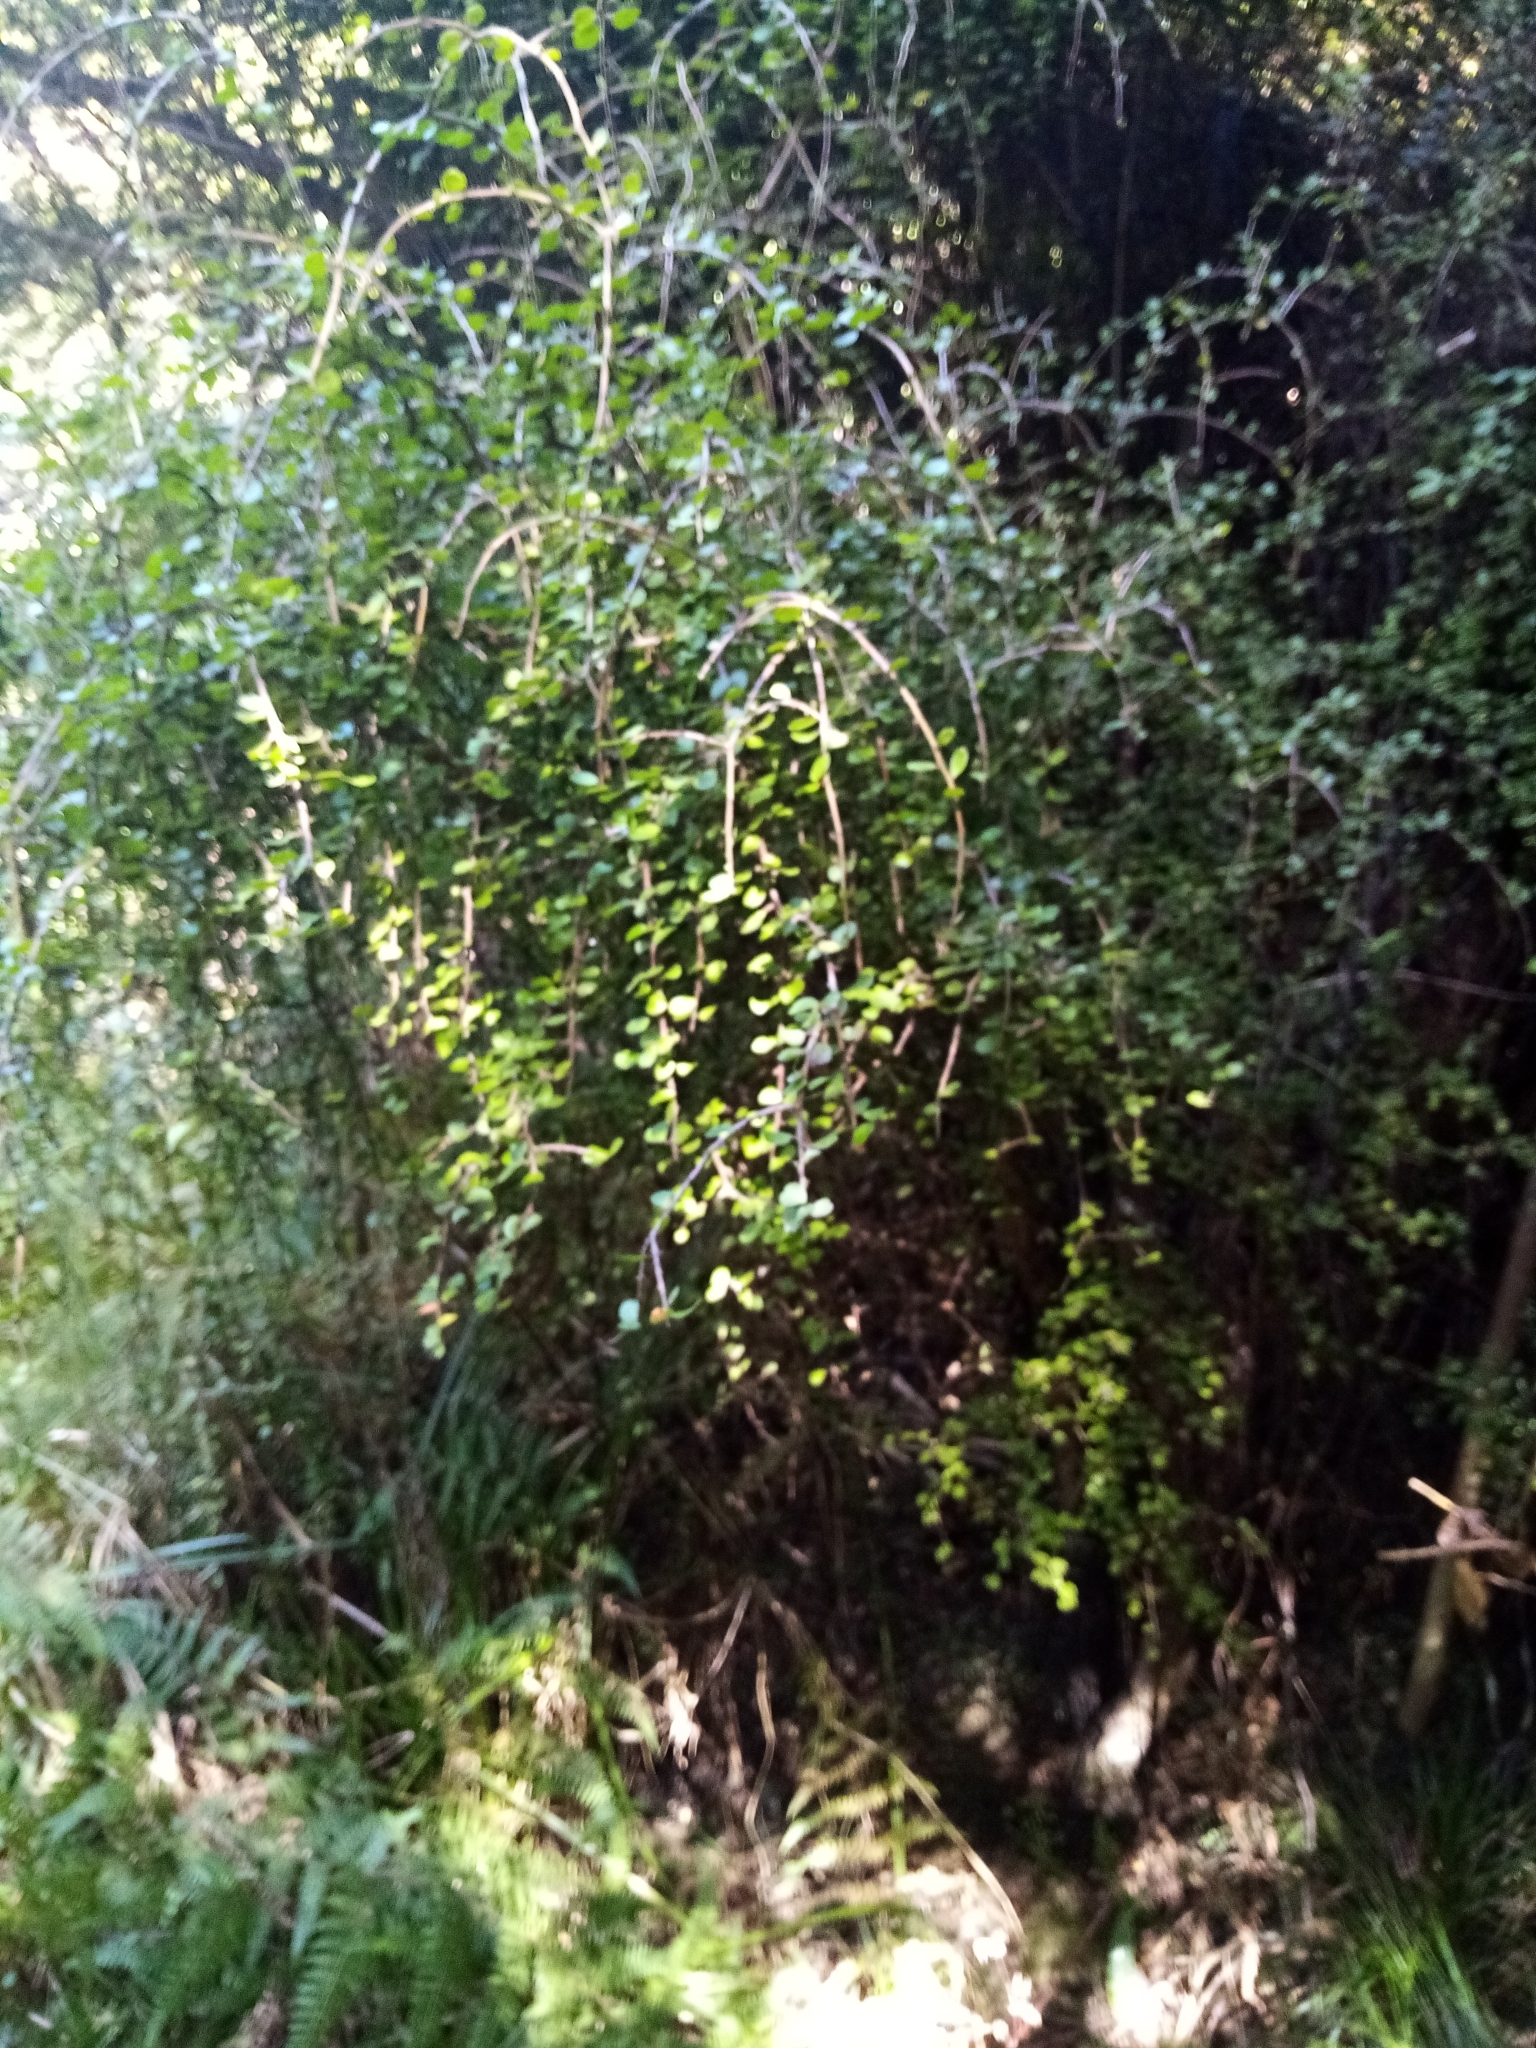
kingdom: Plantae
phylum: Tracheophyta
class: Magnoliopsida
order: Ericales
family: Primulaceae
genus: Myrsine
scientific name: Myrsine divaricata
